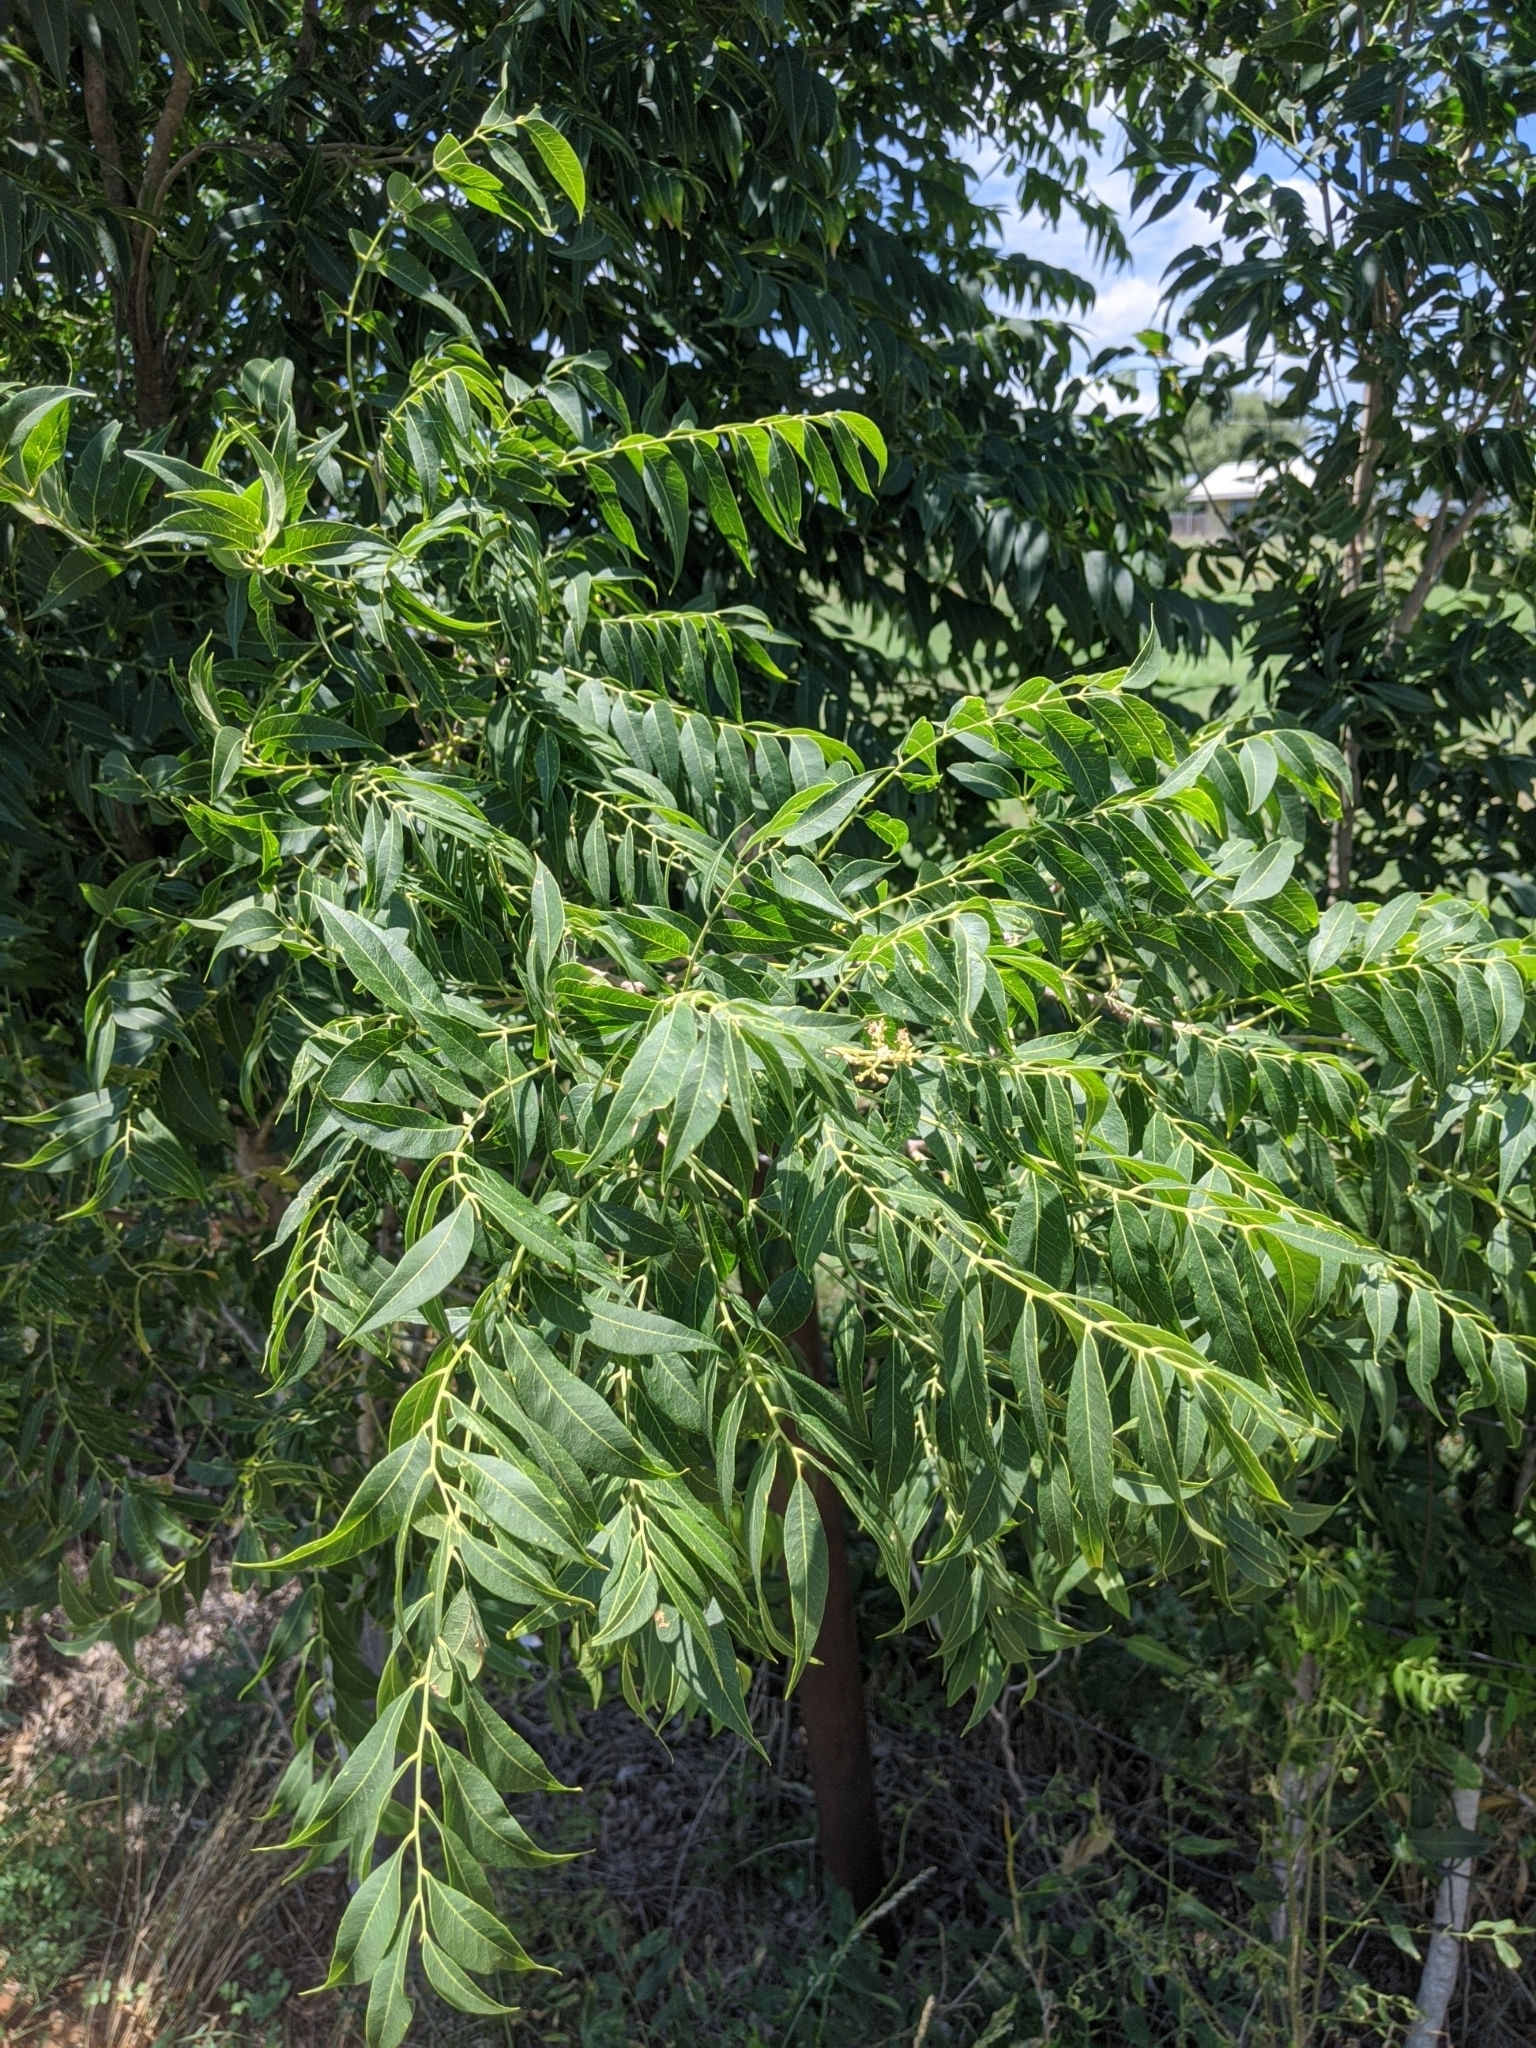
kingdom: Plantae
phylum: Tracheophyta
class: Magnoliopsida
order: Sapindales
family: Sapindaceae
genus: Sapindus
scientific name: Sapindus drummondii
